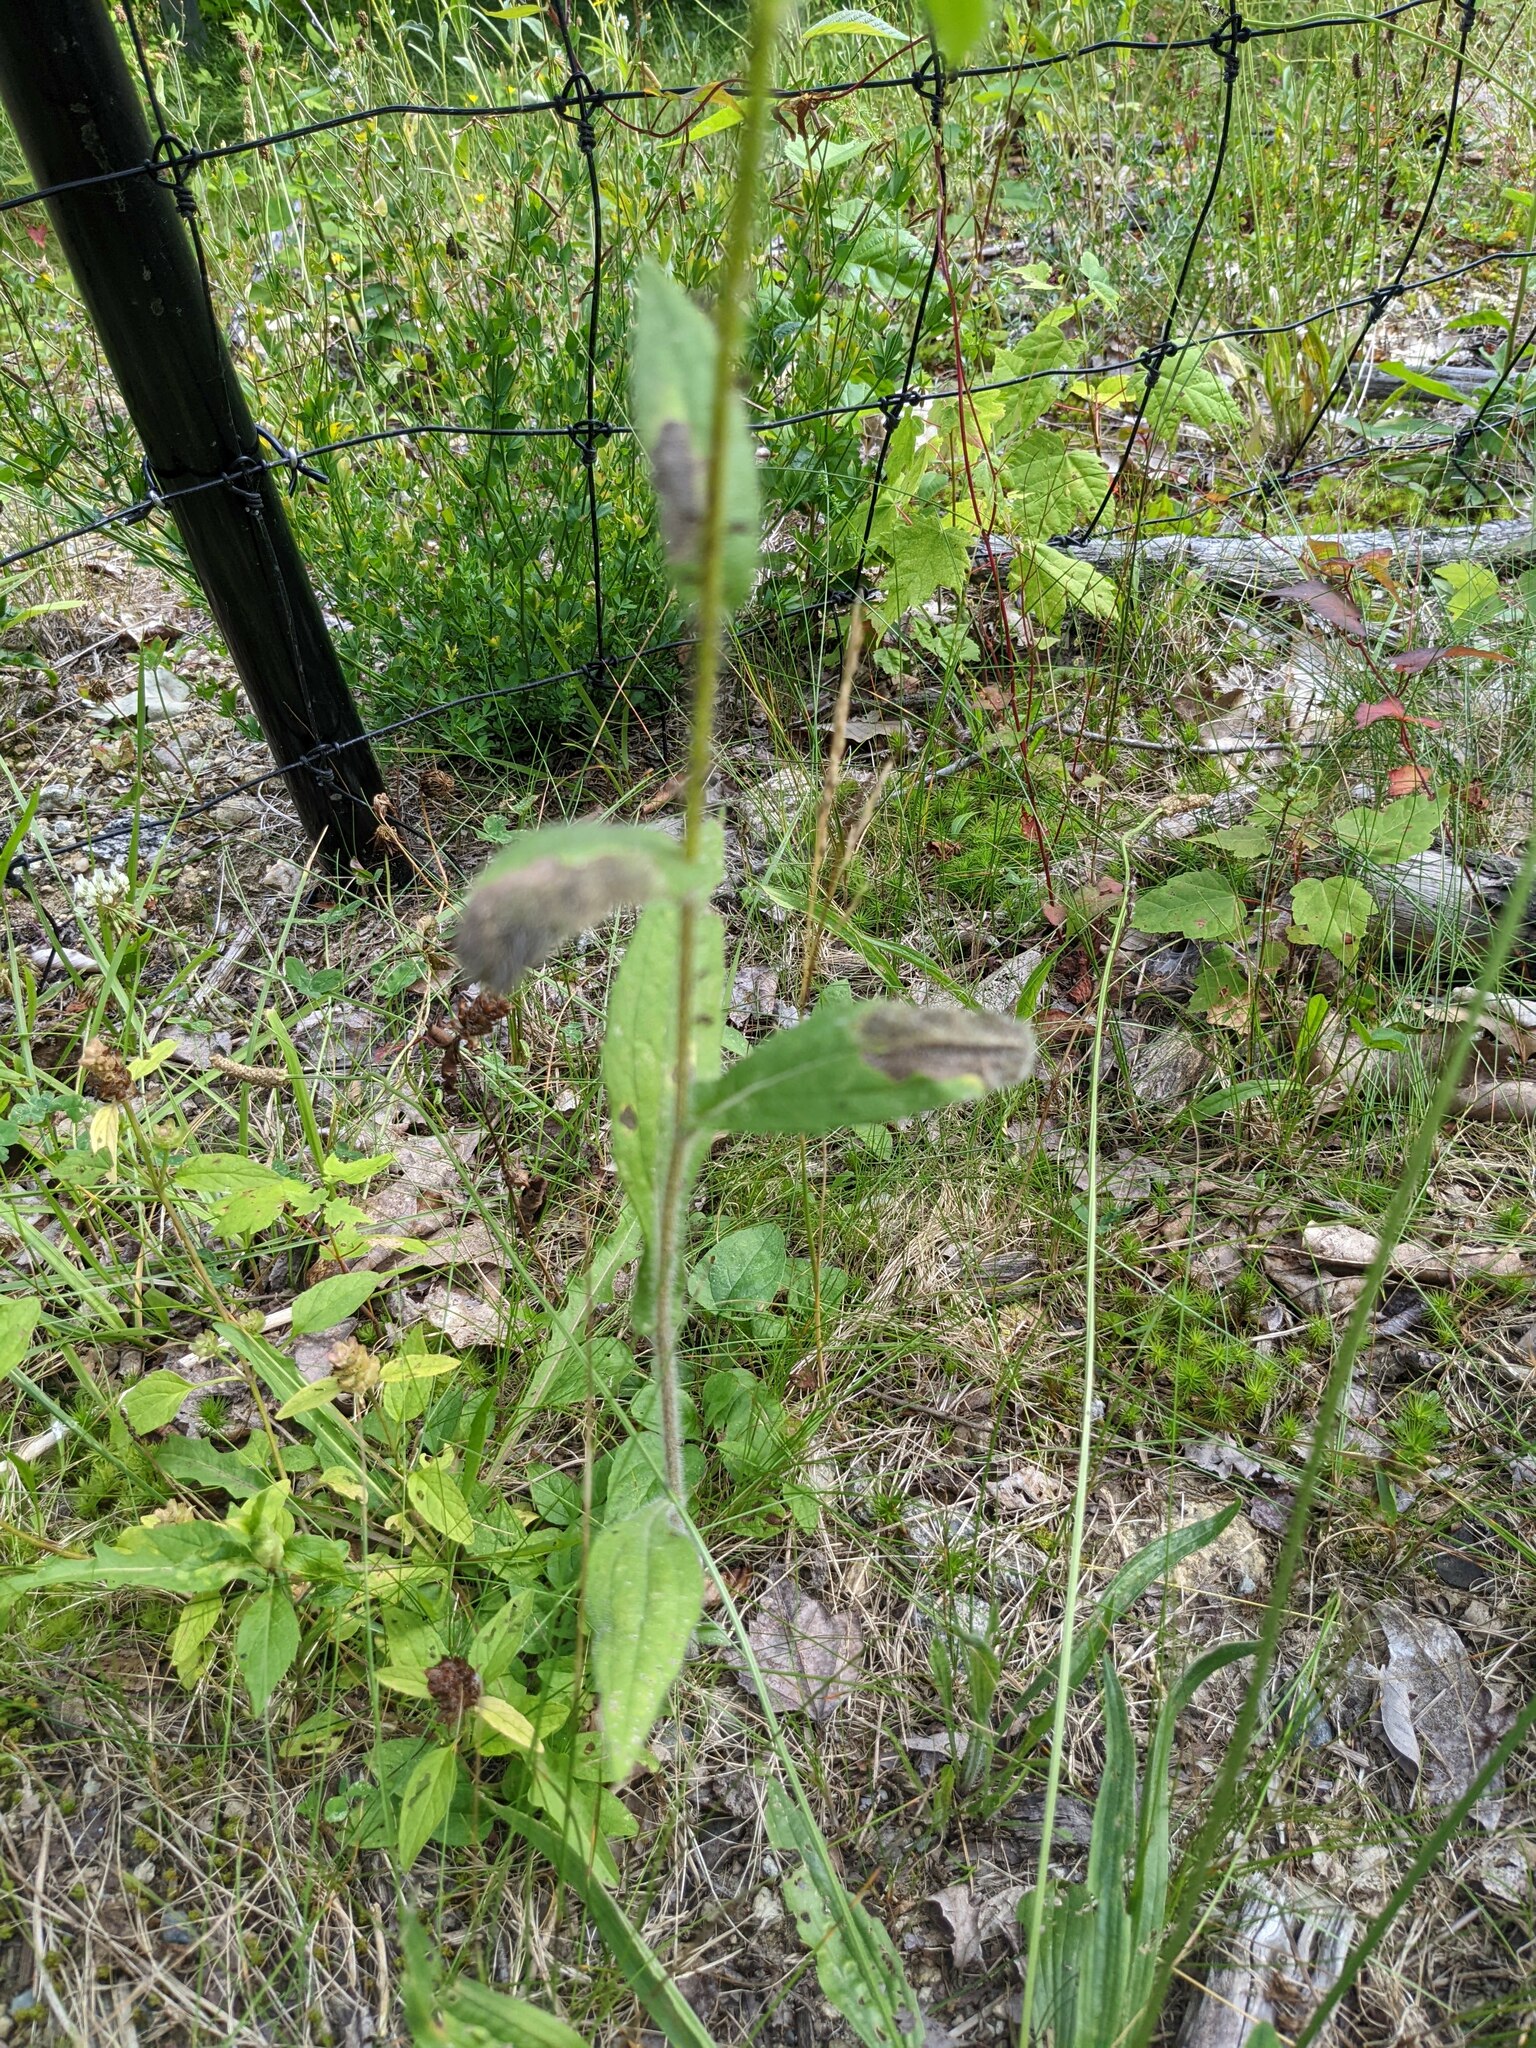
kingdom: Plantae
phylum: Tracheophyta
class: Magnoliopsida
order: Asterales
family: Asteraceae
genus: Rudbeckia
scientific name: Rudbeckia hirta
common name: Black-eyed-susan
